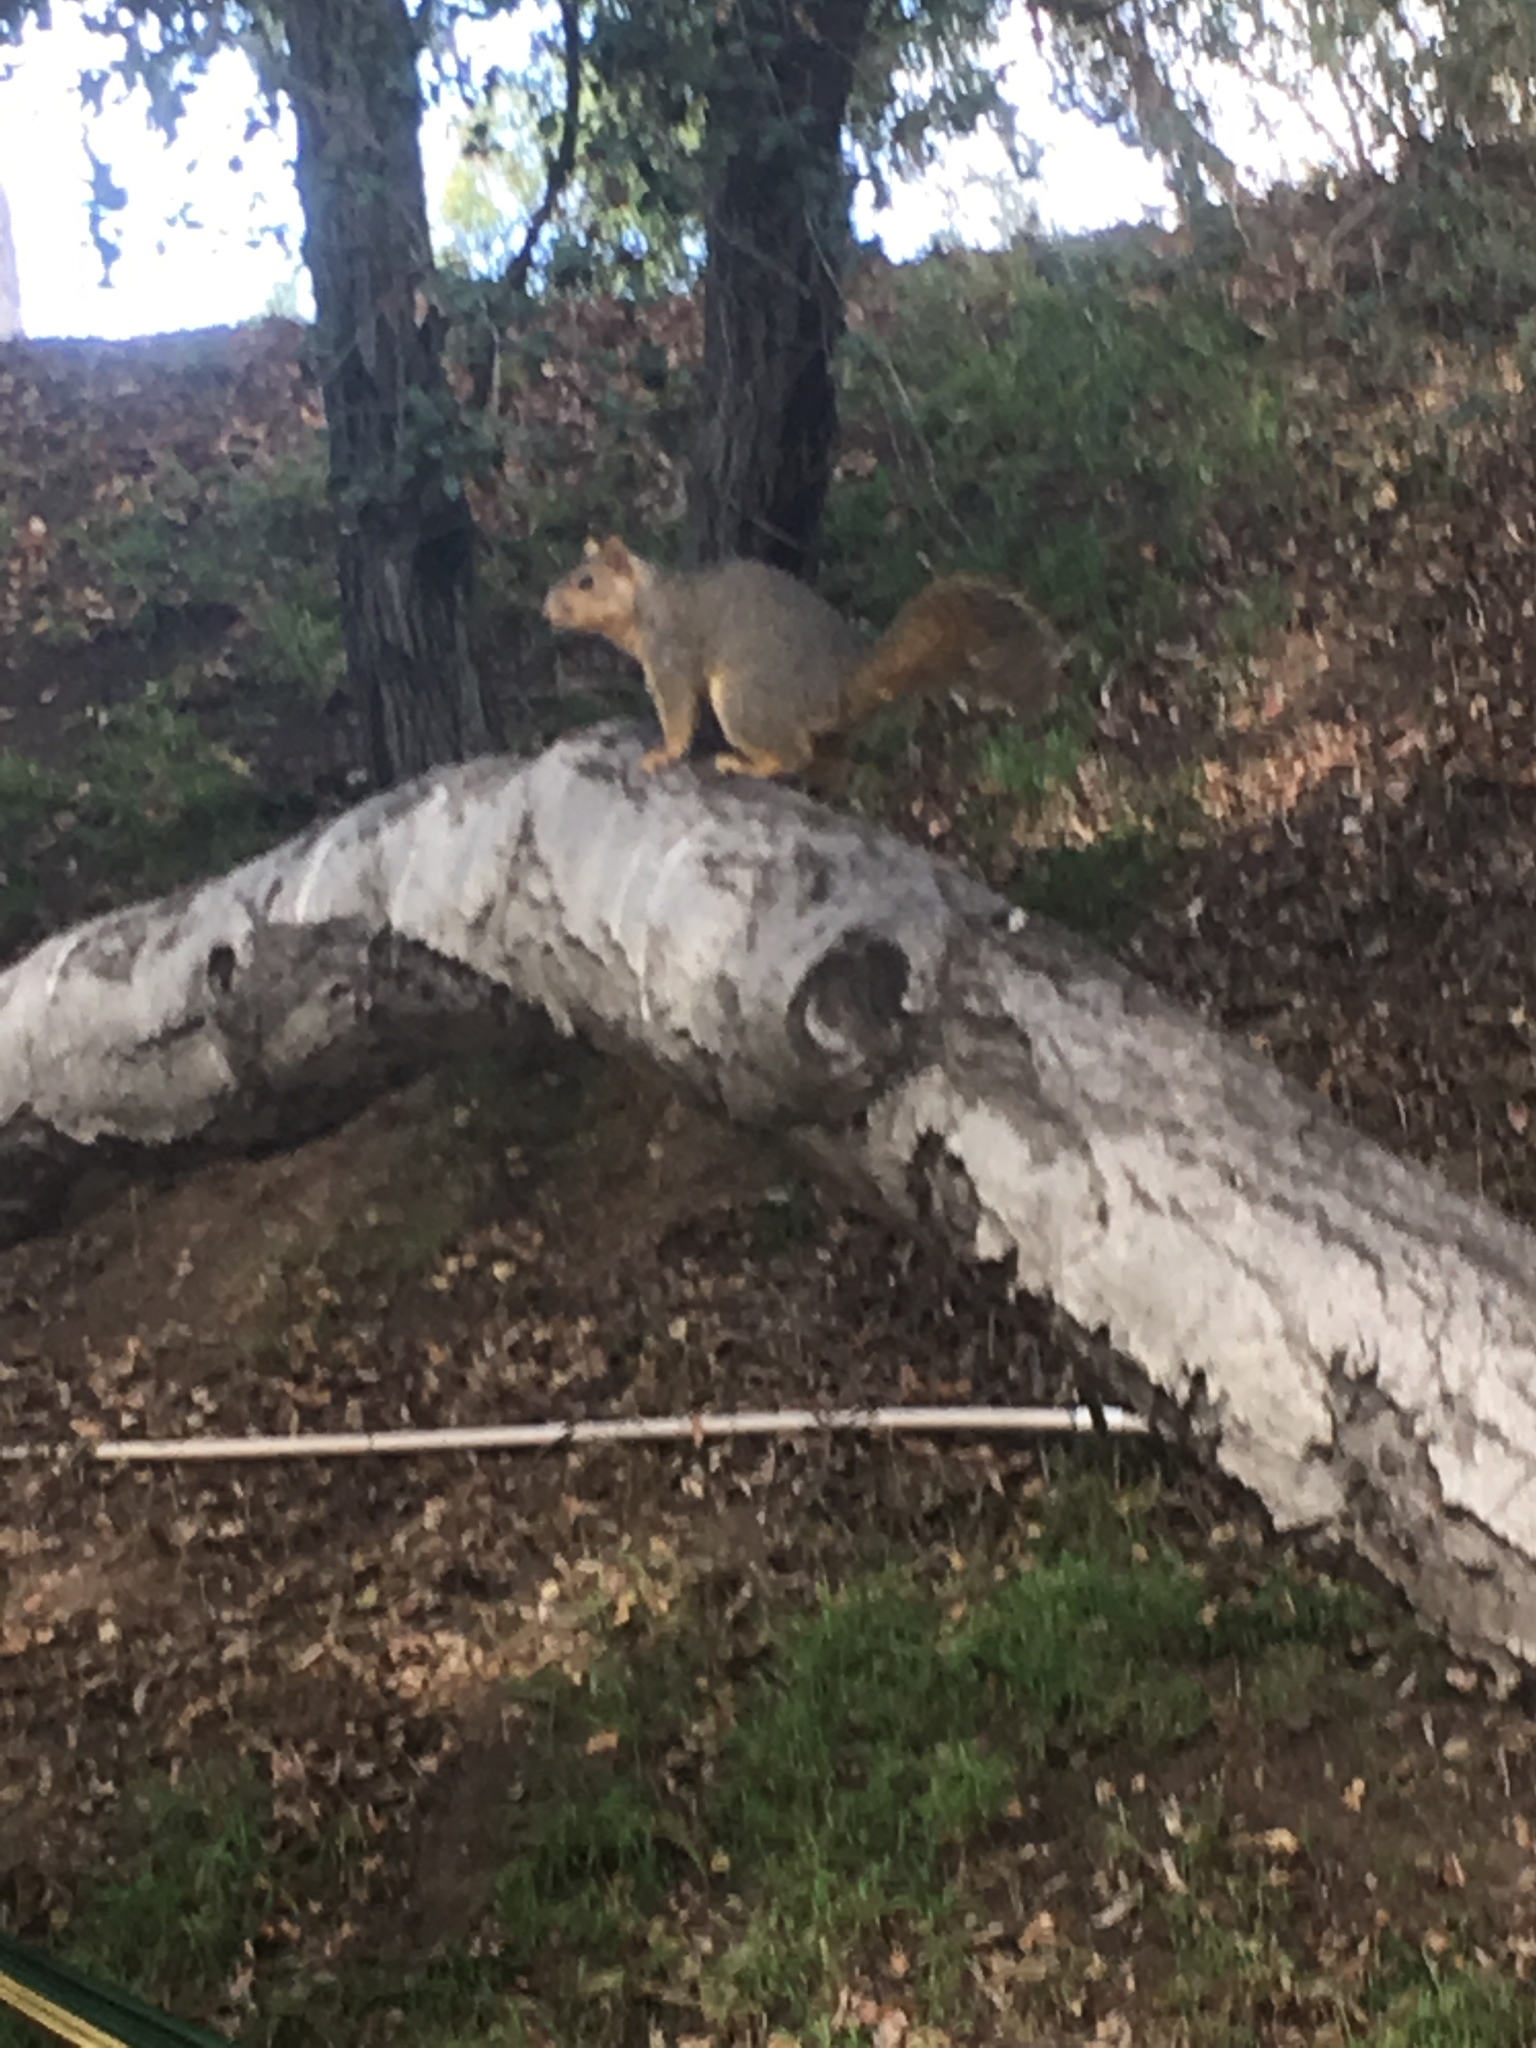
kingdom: Animalia
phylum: Chordata
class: Mammalia
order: Rodentia
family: Sciuridae
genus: Sciurus
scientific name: Sciurus niger
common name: Fox squirrel
